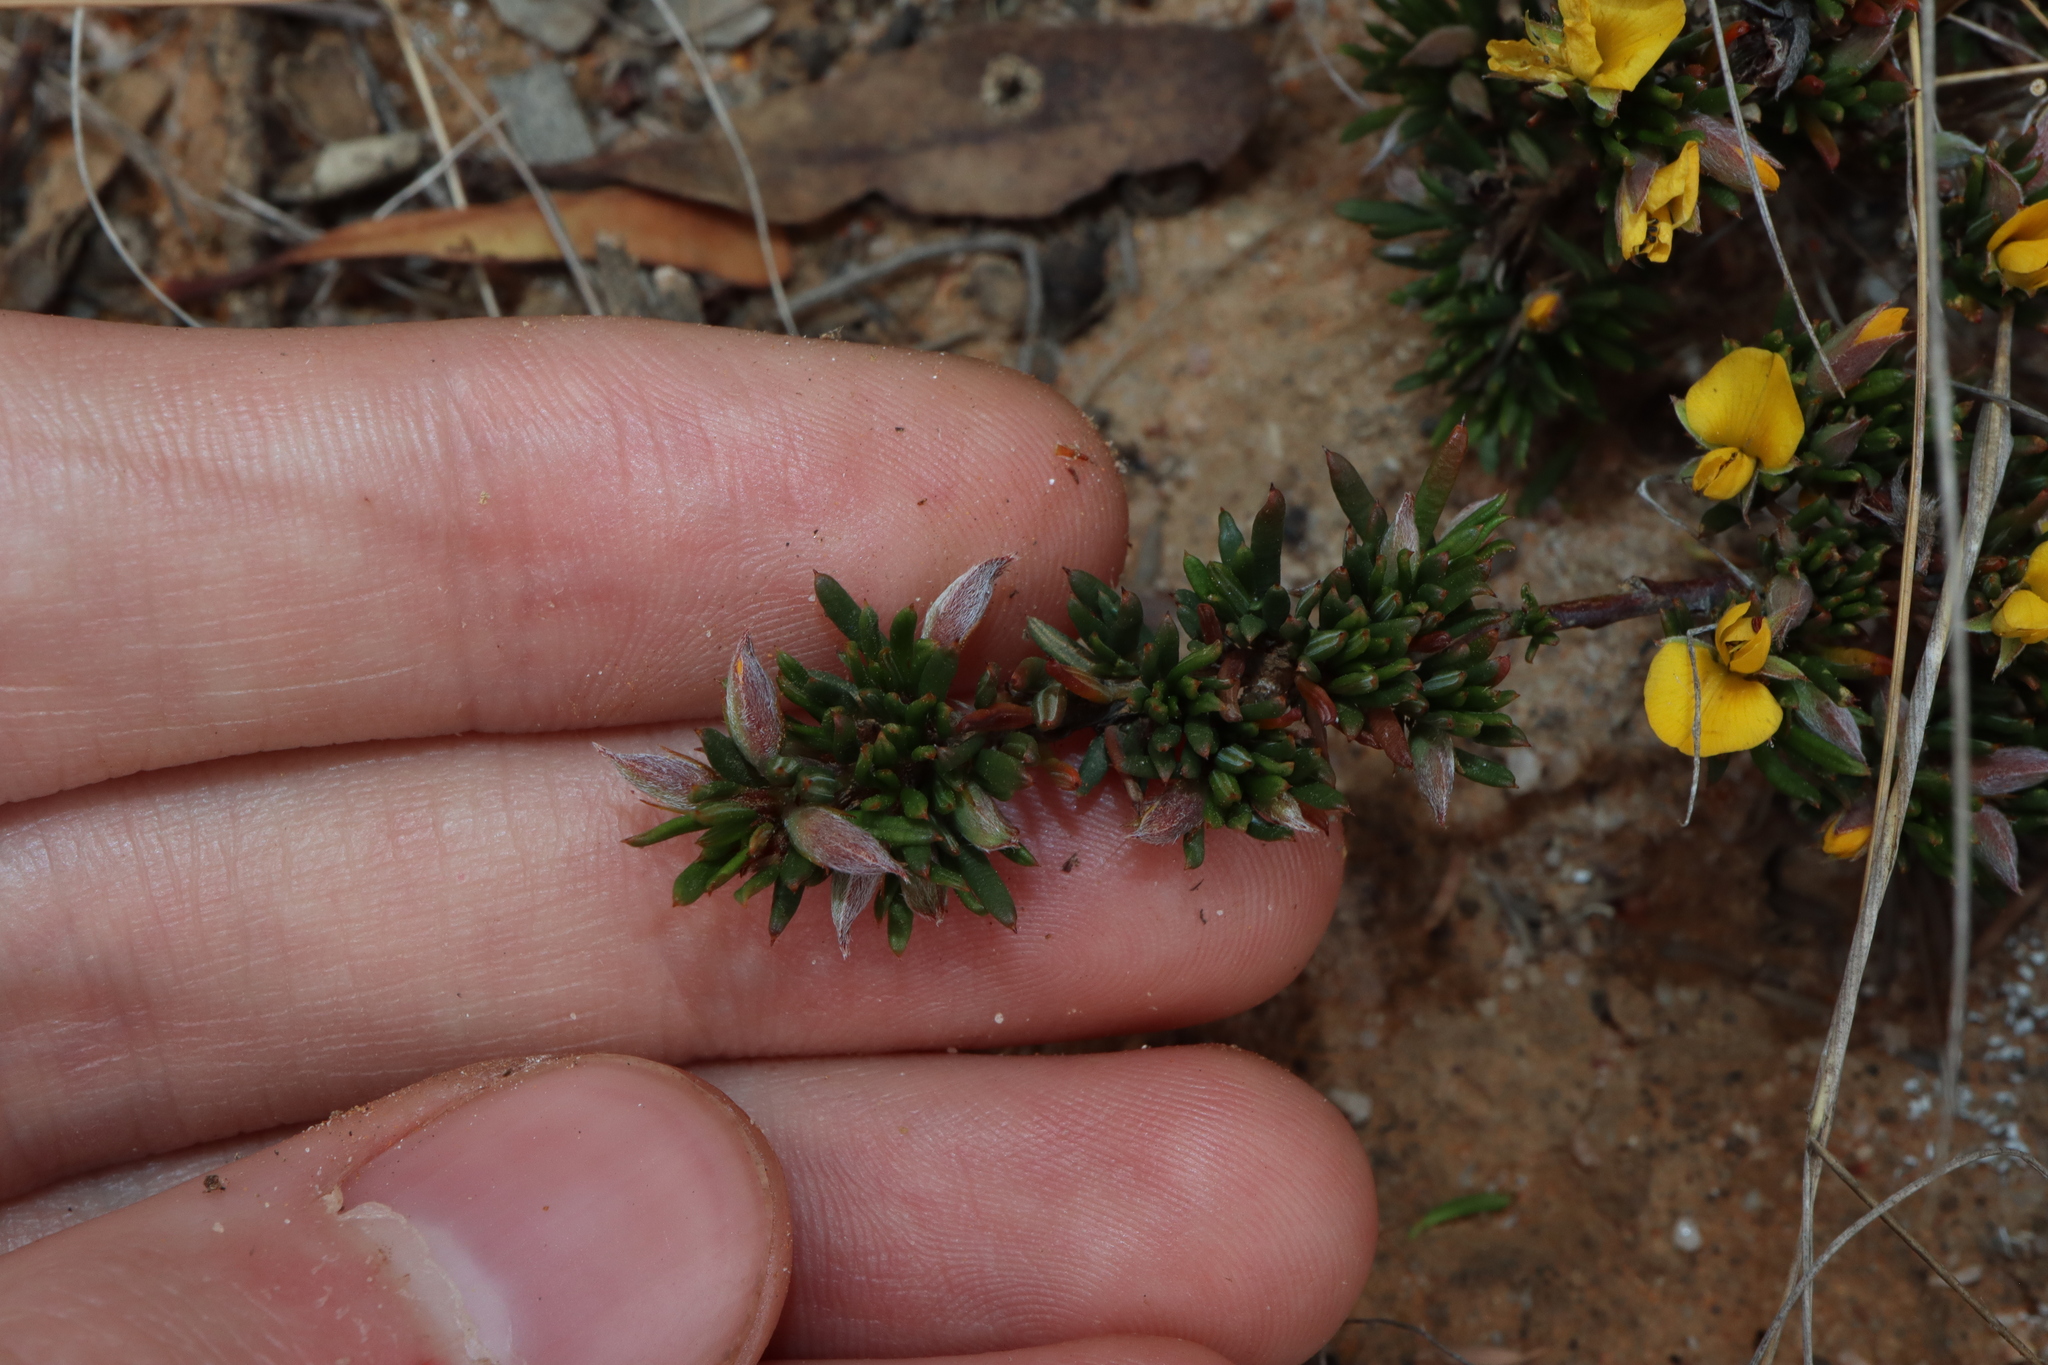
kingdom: Plantae
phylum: Tracheophyta
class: Magnoliopsida
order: Fabales
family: Fabaceae
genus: Pultenaea
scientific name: Pultenaea purpurea
